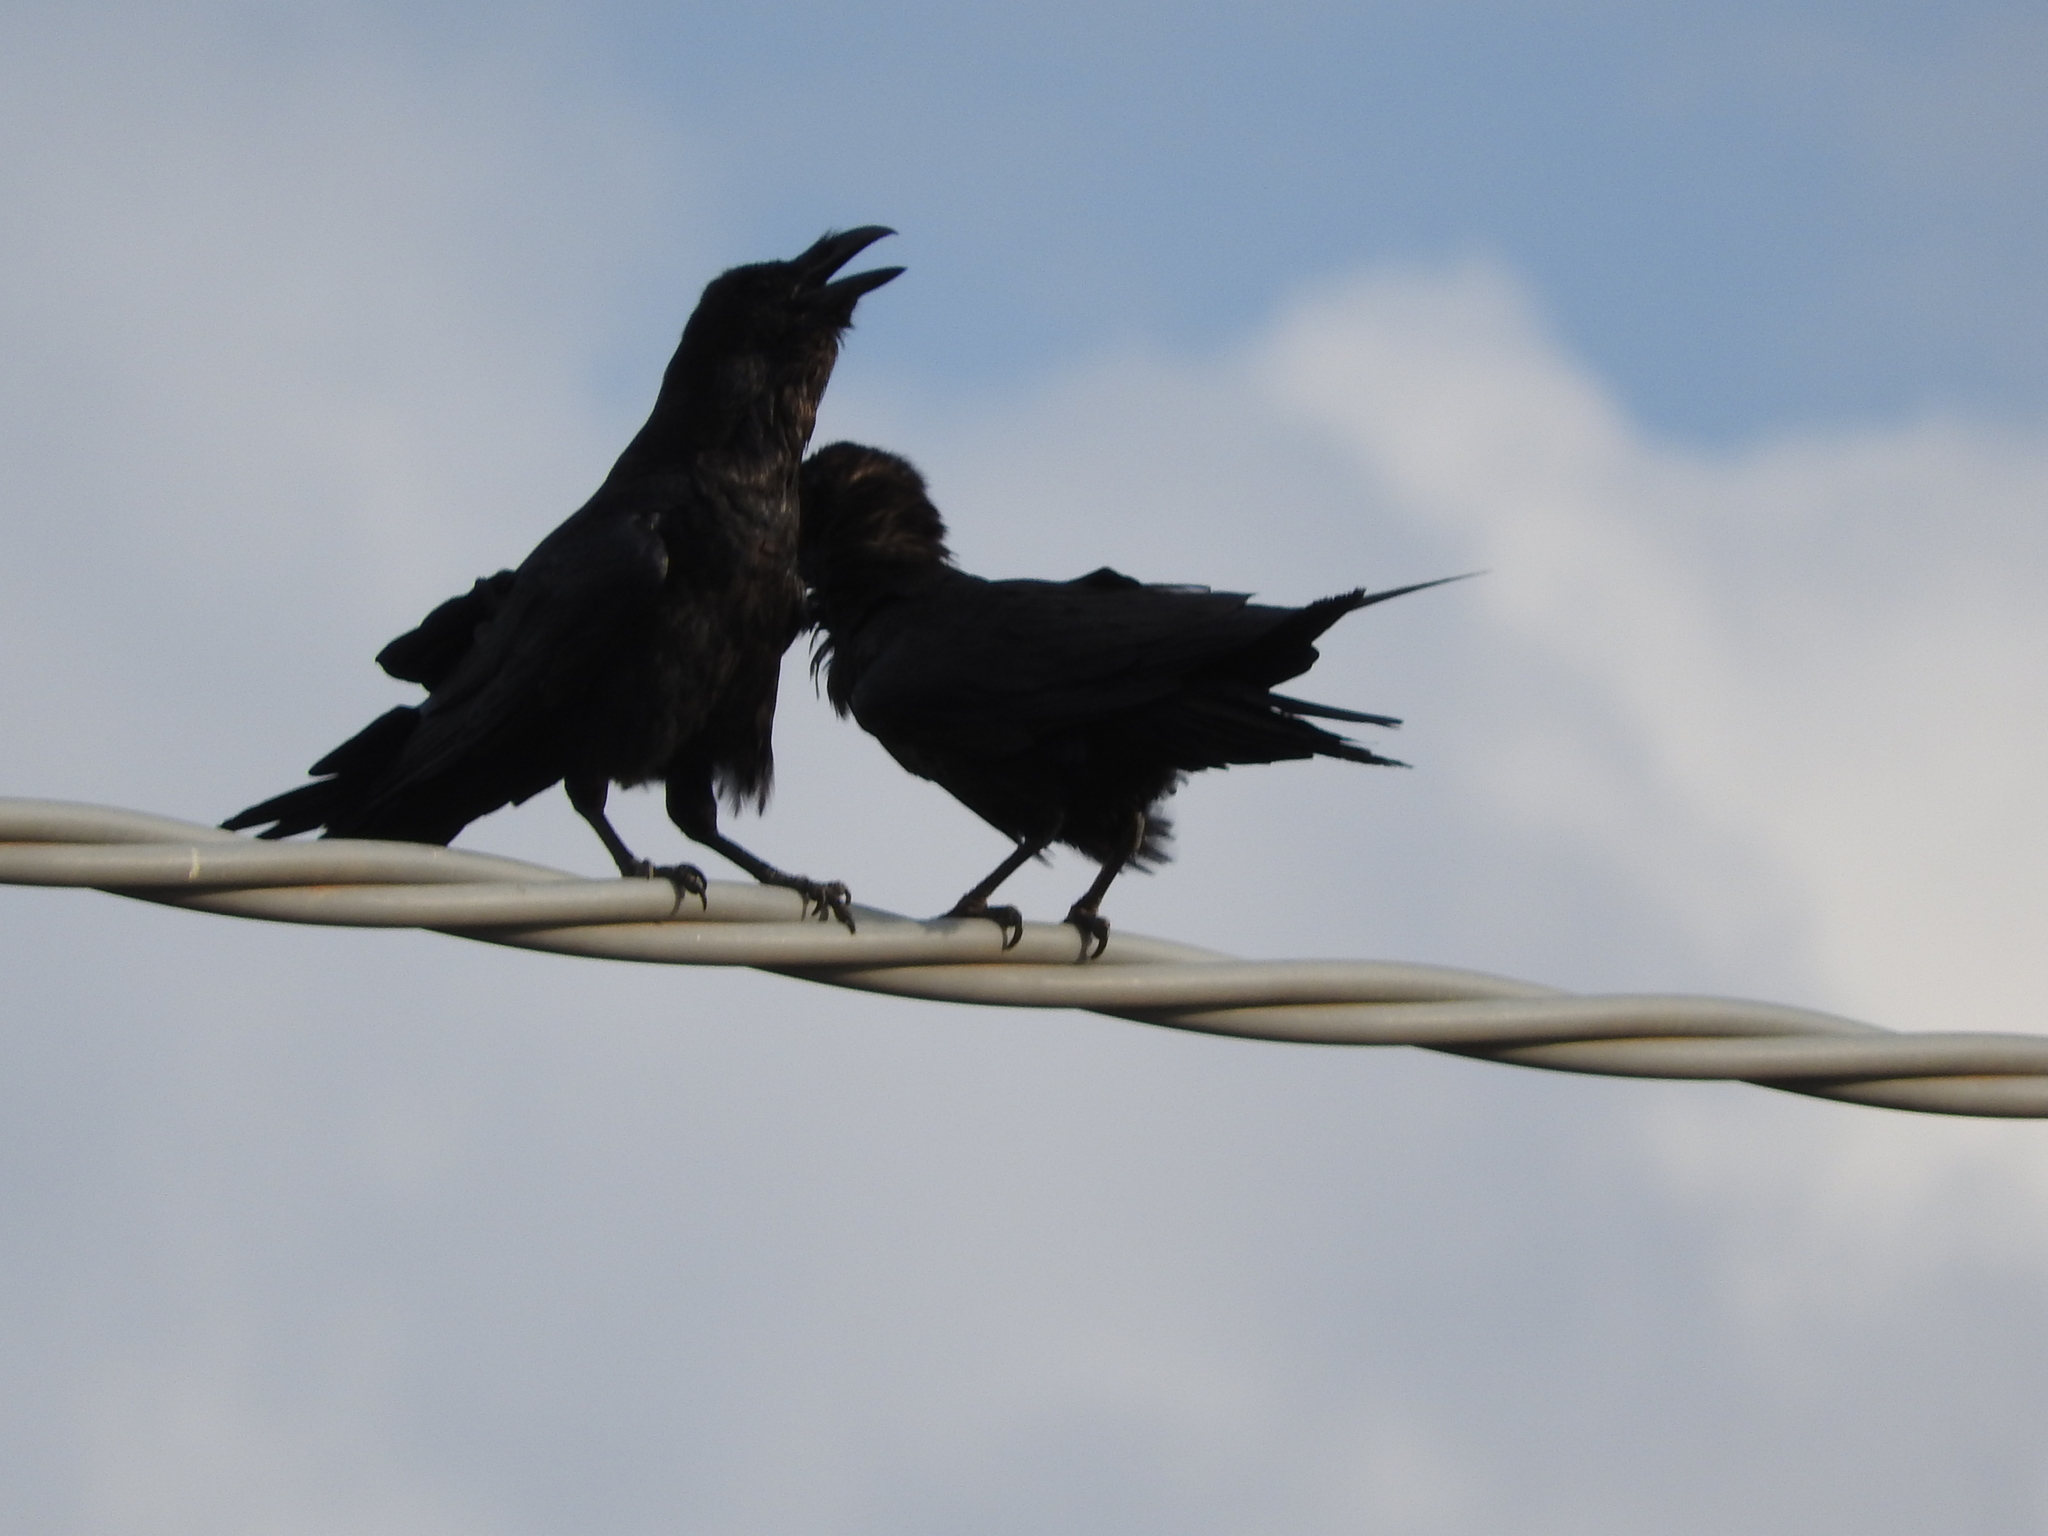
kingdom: Animalia
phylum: Chordata
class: Aves
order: Passeriformes
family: Corvidae
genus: Corvus
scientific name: Corvus corax
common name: Common raven
